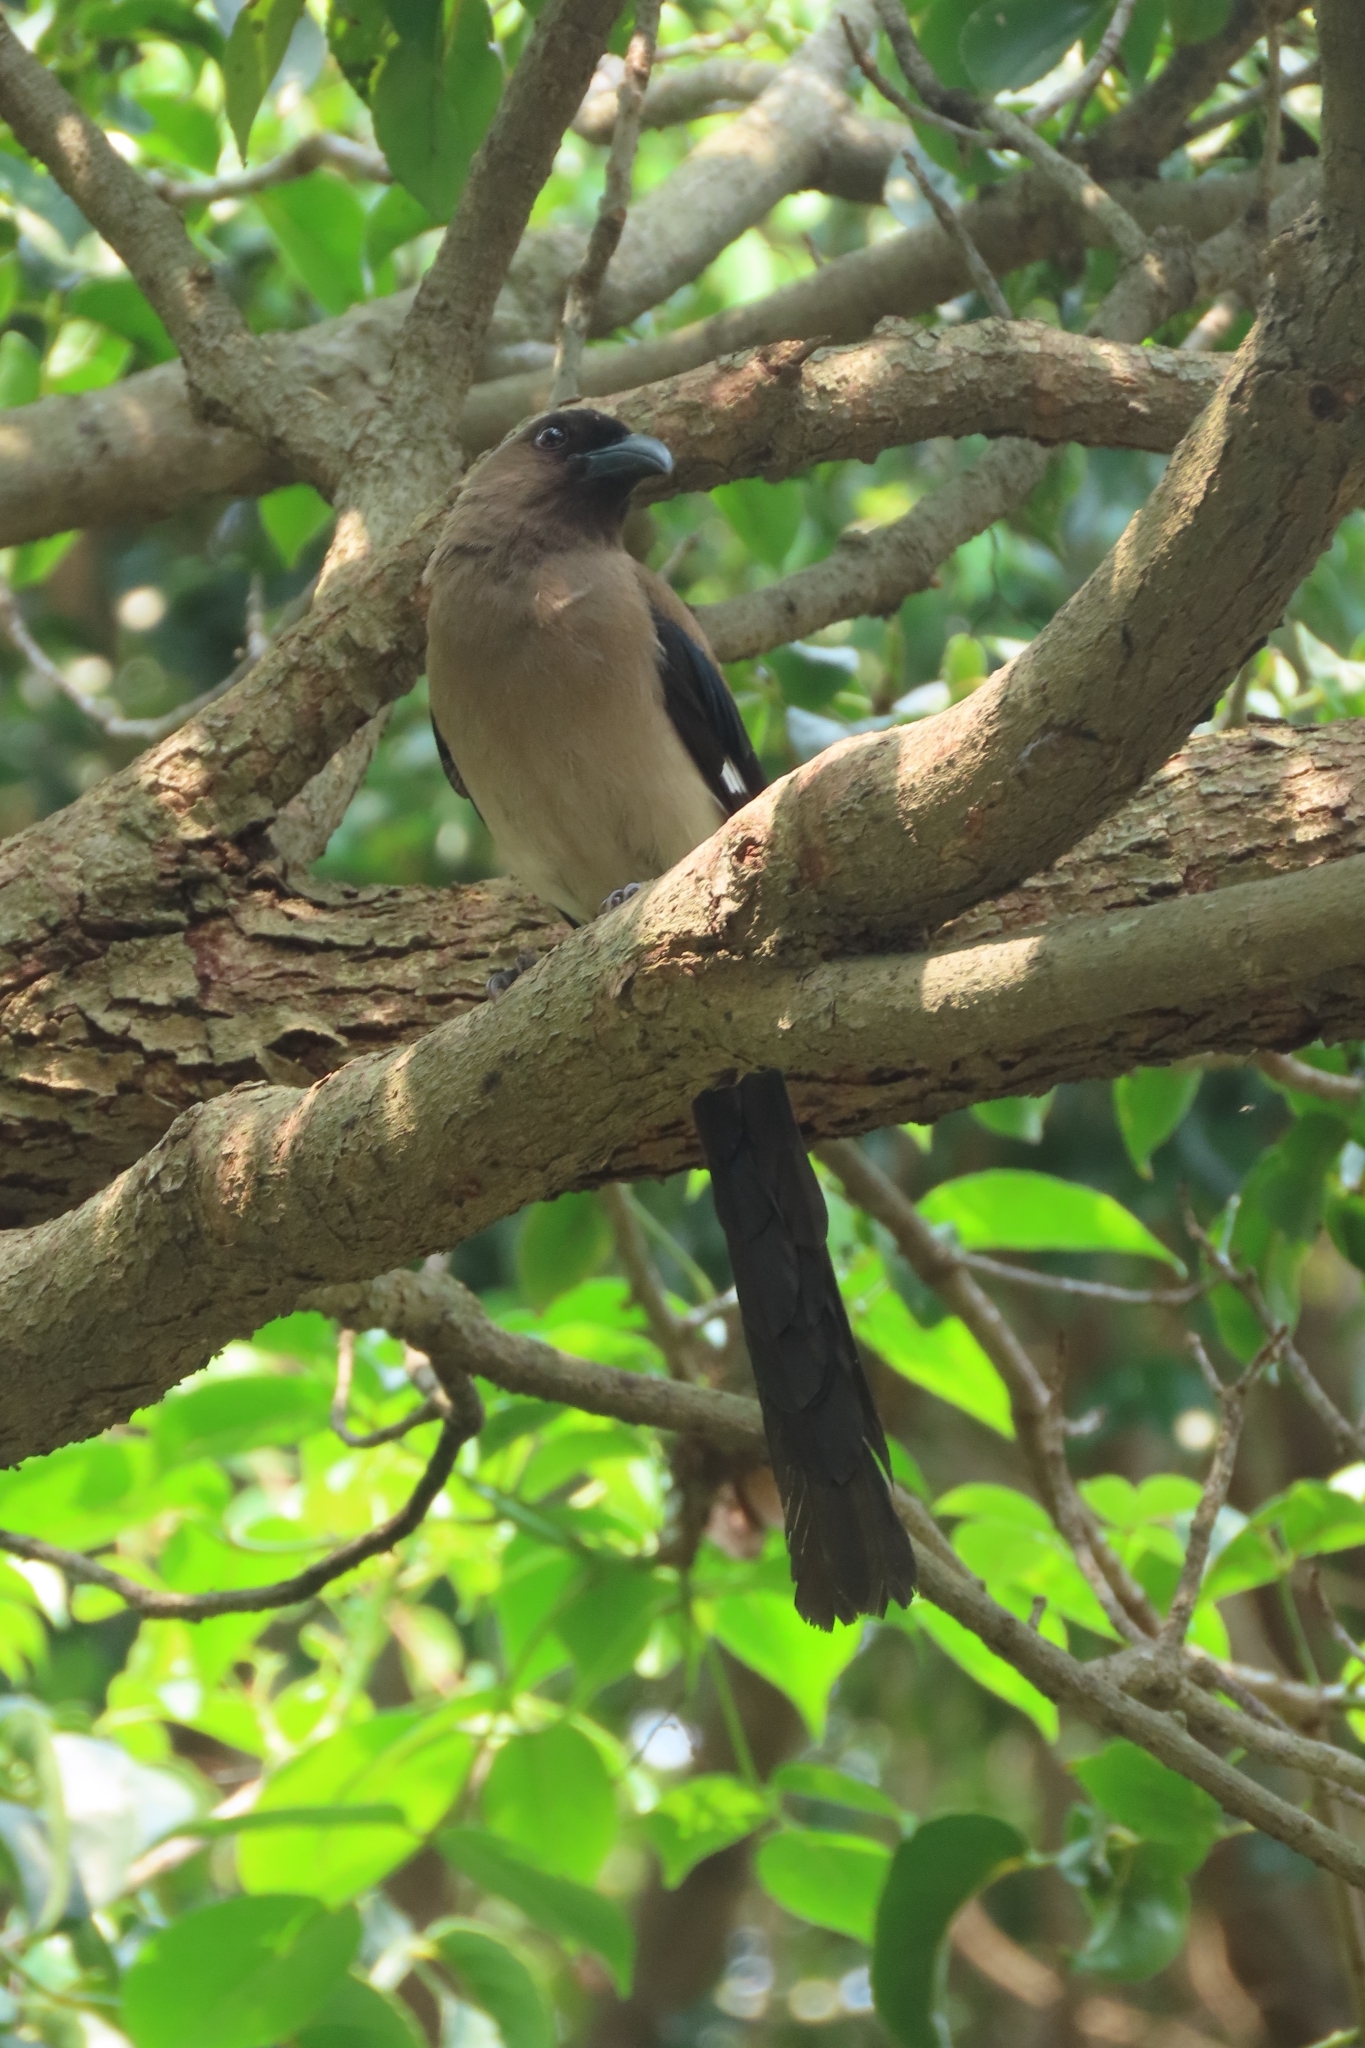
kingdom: Animalia
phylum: Chordata
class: Aves
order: Passeriformes
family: Corvidae
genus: Dendrocitta
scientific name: Dendrocitta formosae
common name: Grey treepie
